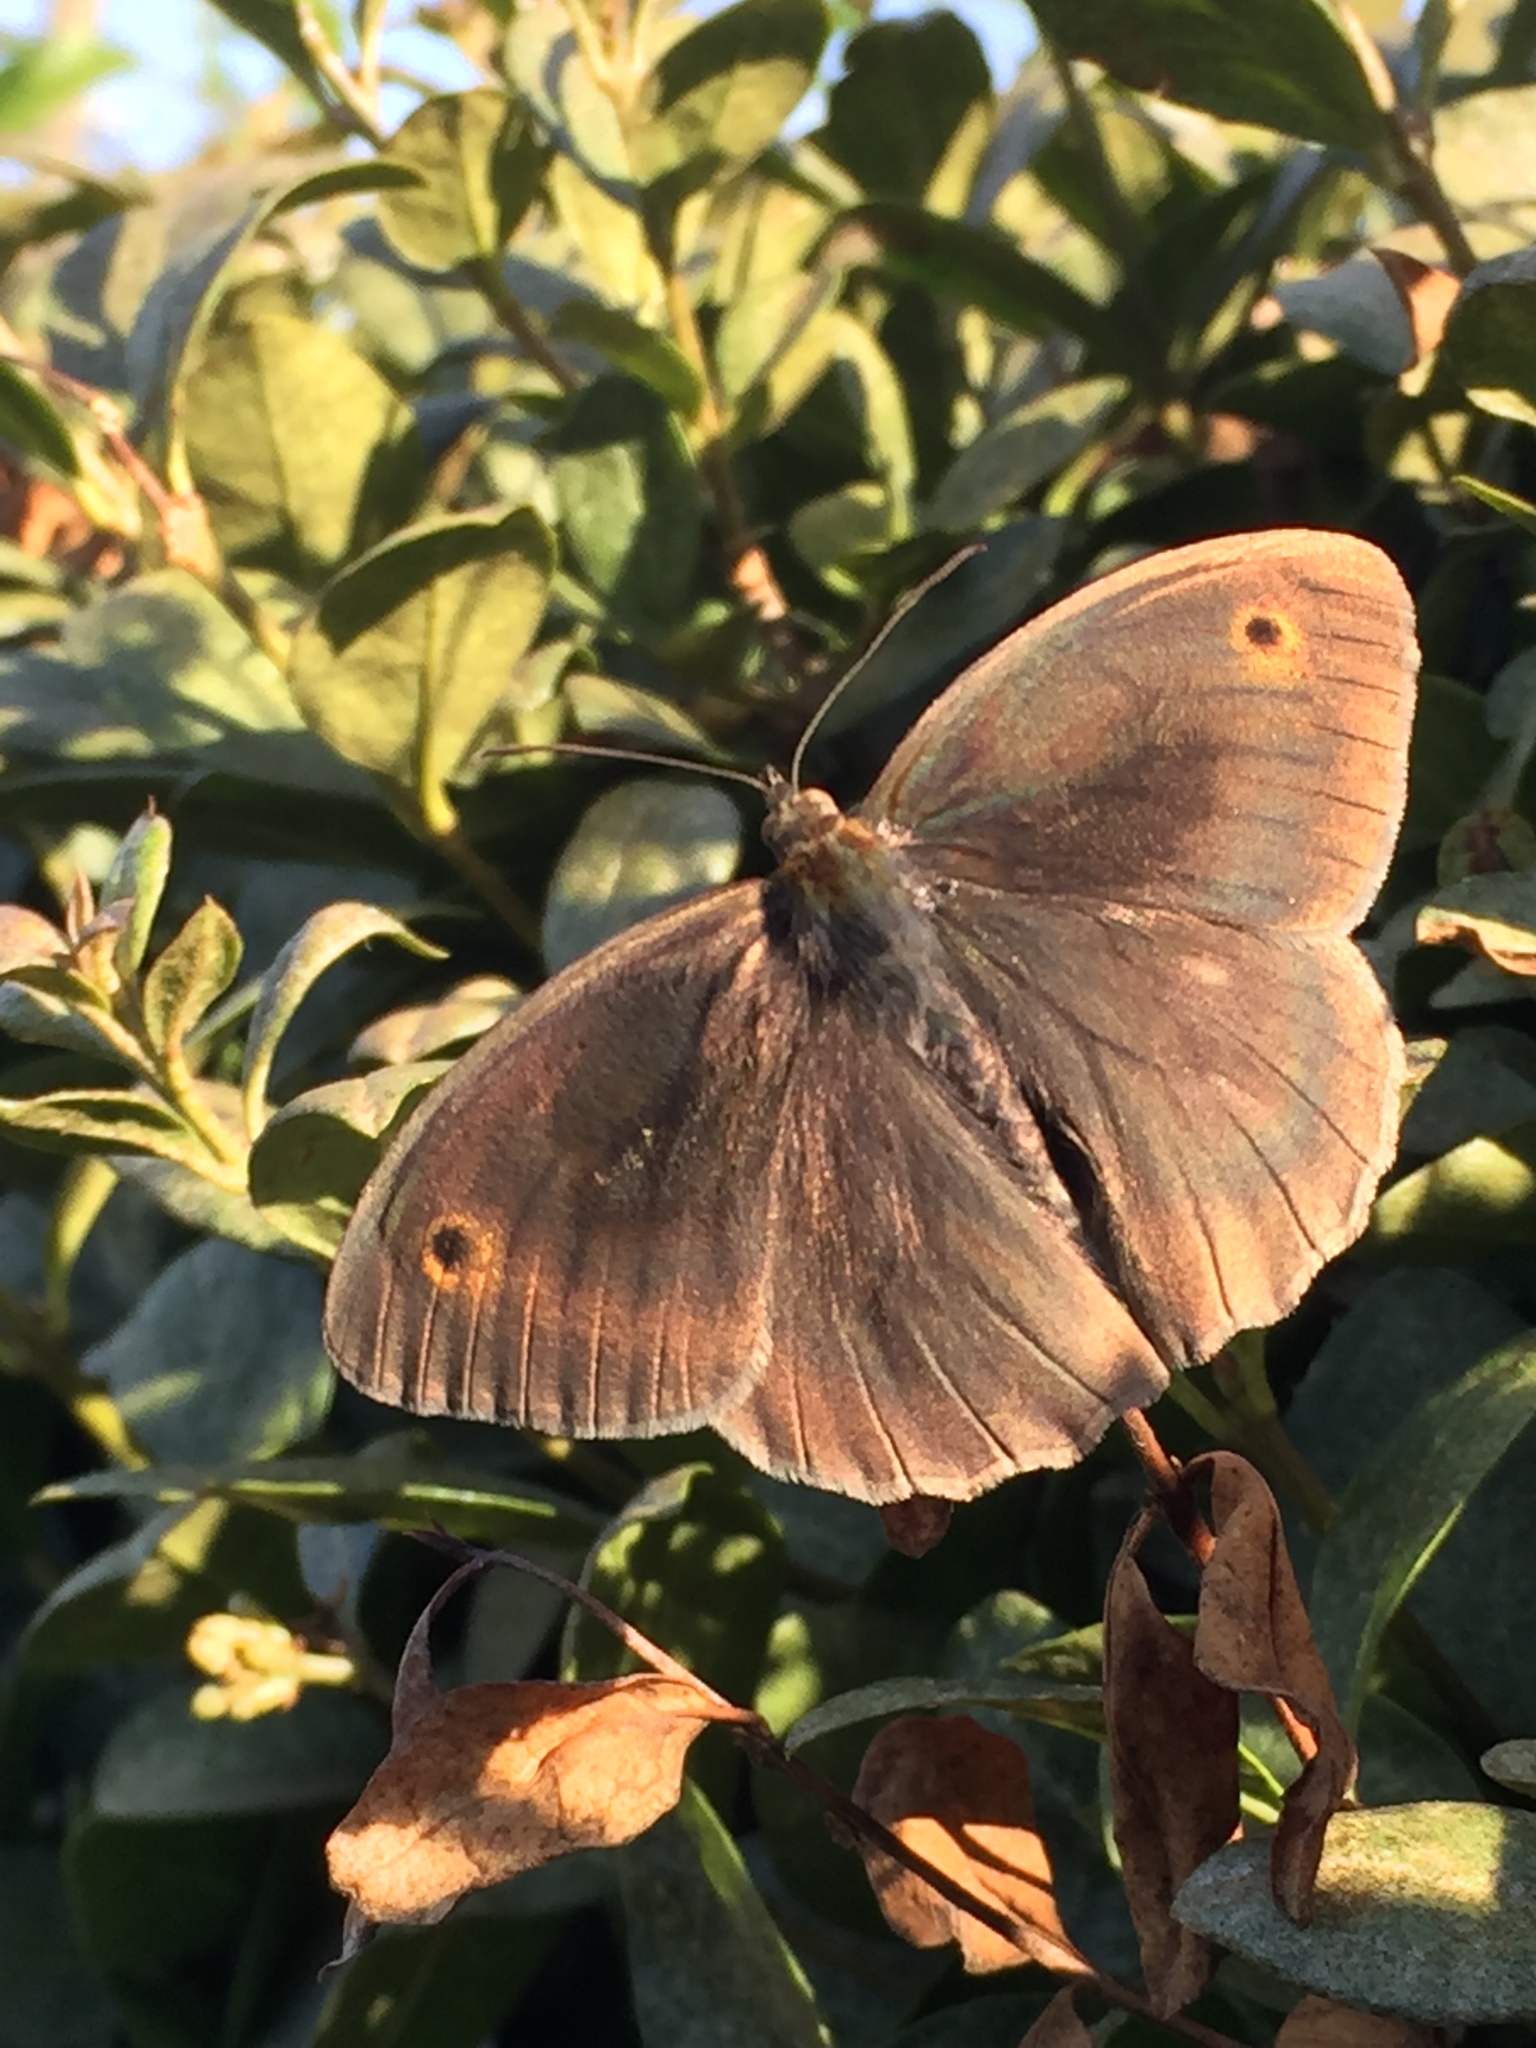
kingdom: Animalia
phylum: Arthropoda
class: Insecta
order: Lepidoptera
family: Nymphalidae
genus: Maniola
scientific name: Maniola jurtina
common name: Meadow brown
